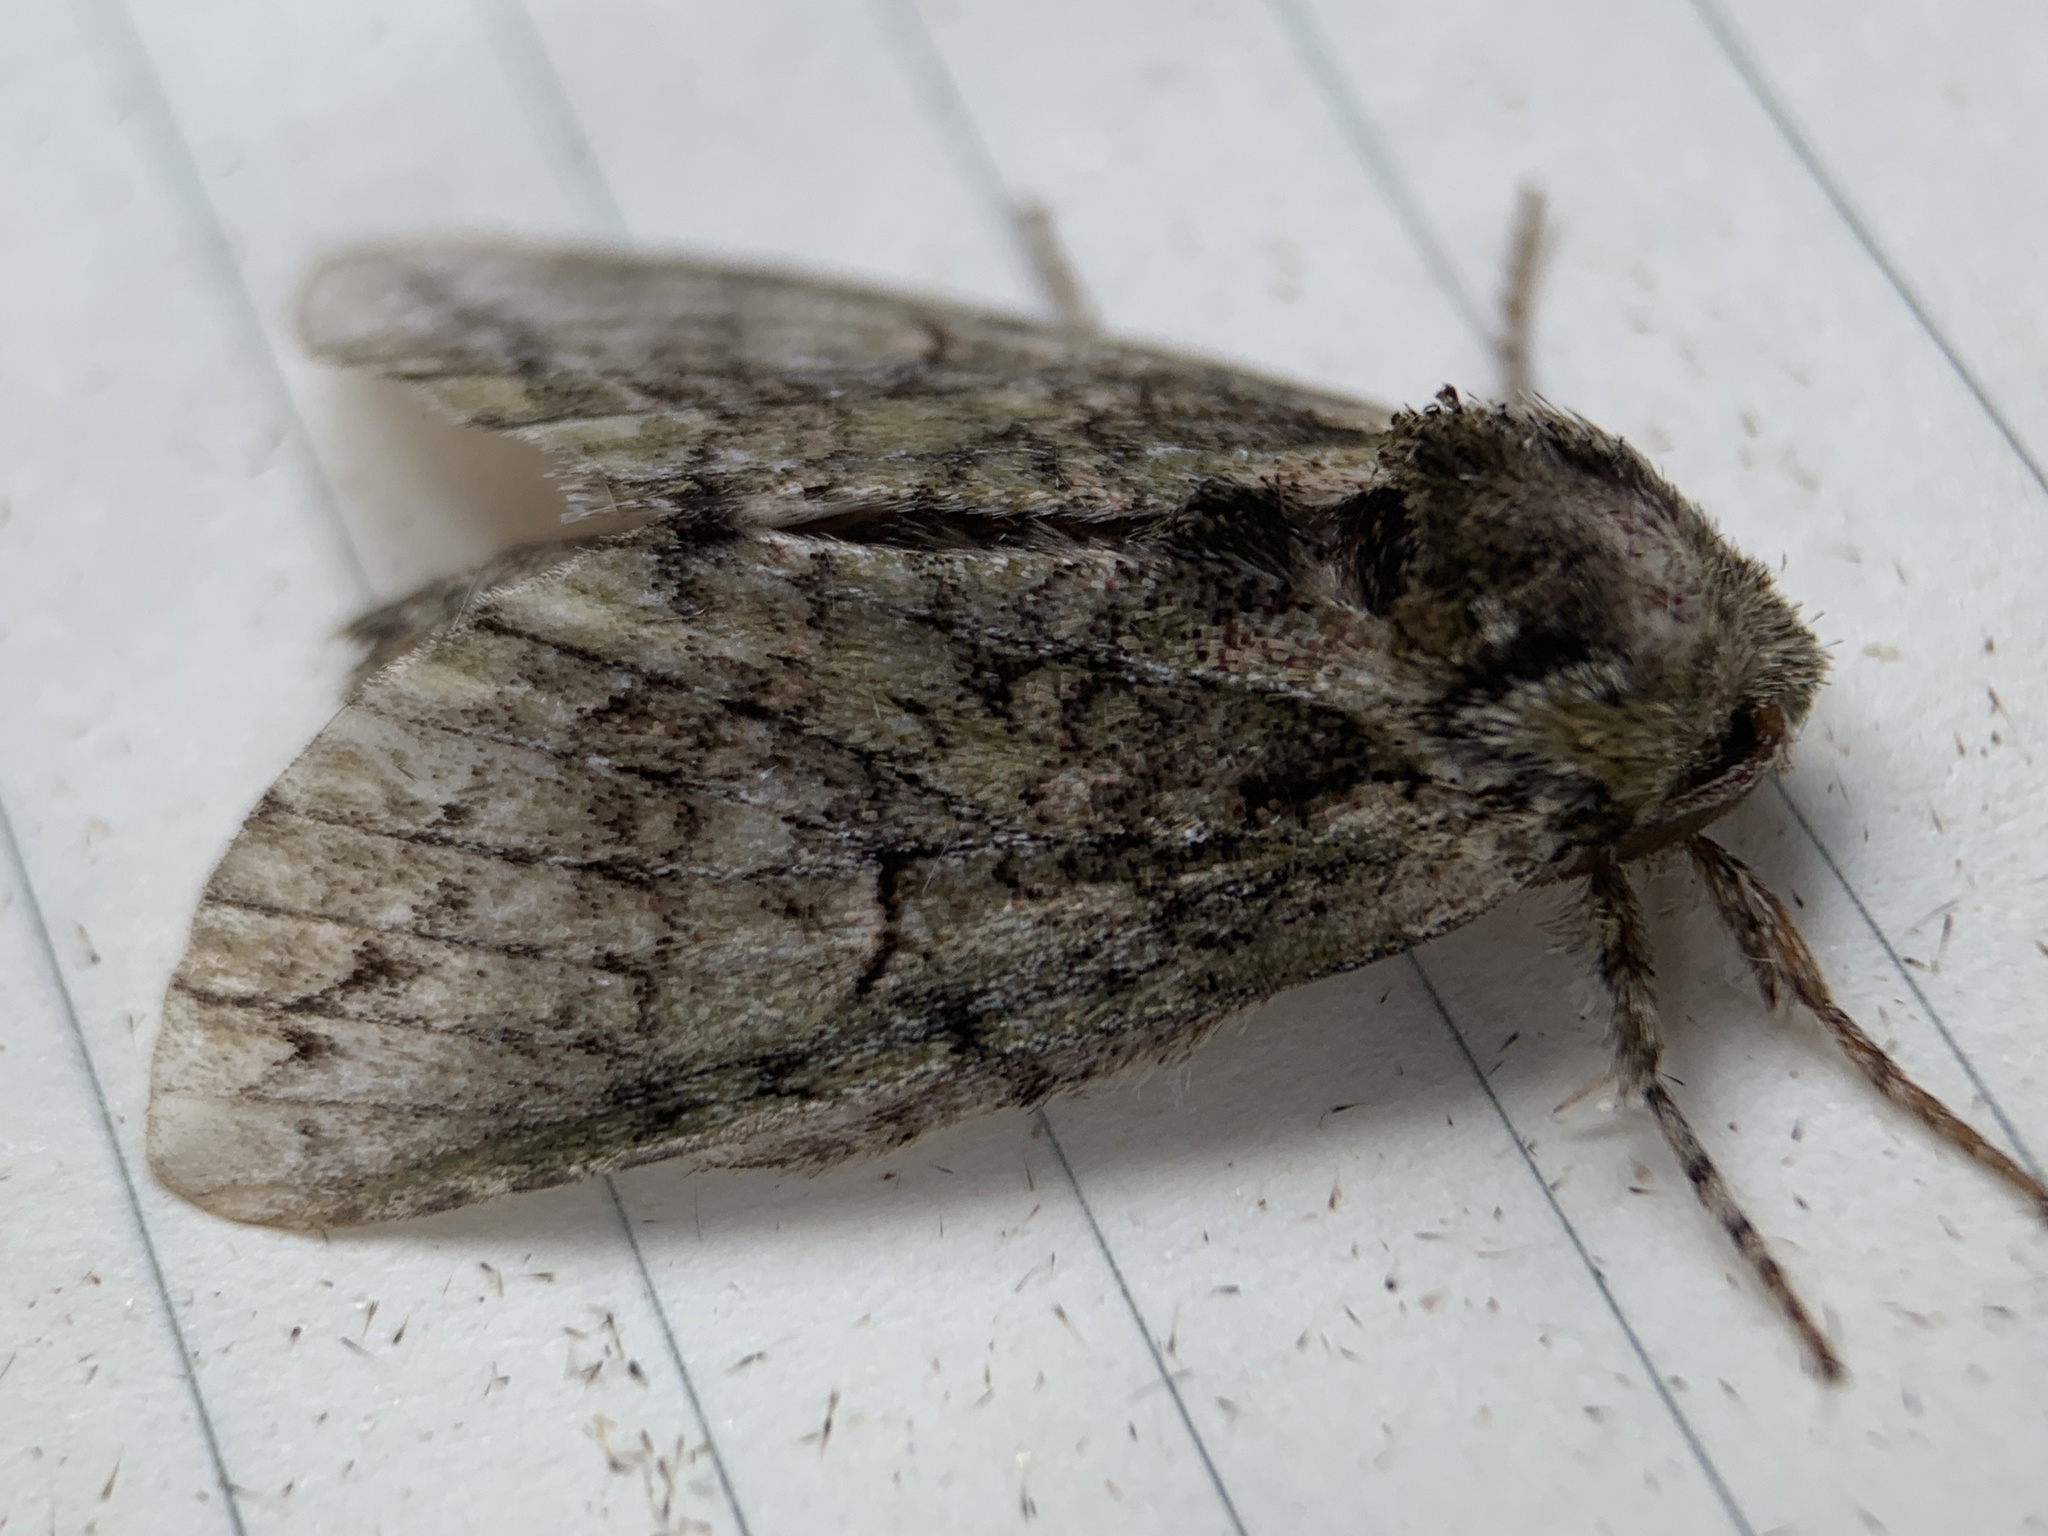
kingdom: Animalia
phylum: Arthropoda
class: Insecta
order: Lepidoptera
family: Notodontidae
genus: Macrurocampa
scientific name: Macrurocampa marthesia
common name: Mottled prominent
